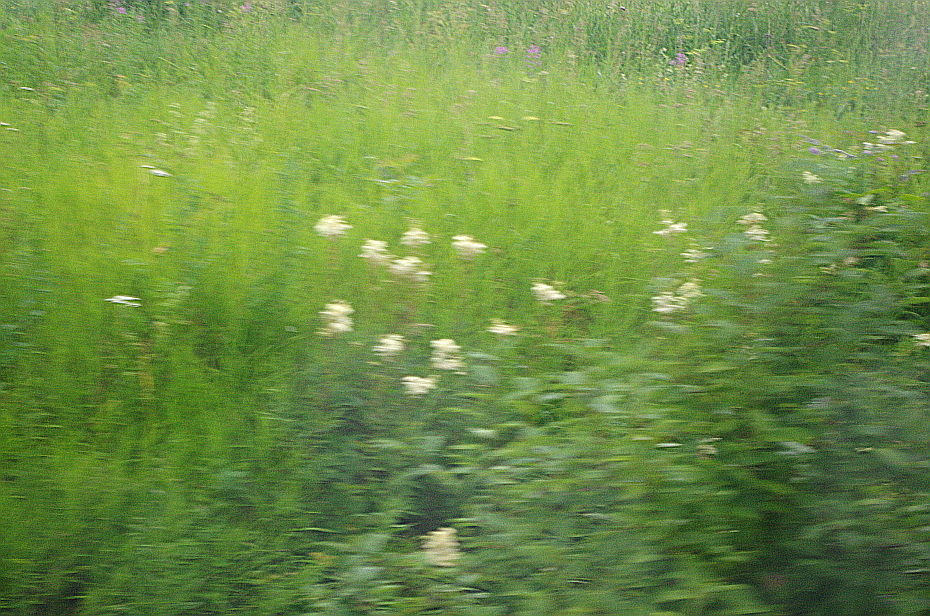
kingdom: Plantae
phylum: Tracheophyta
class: Magnoliopsida
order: Rosales
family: Rosaceae
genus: Filipendula
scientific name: Filipendula ulmaria
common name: Meadowsweet
